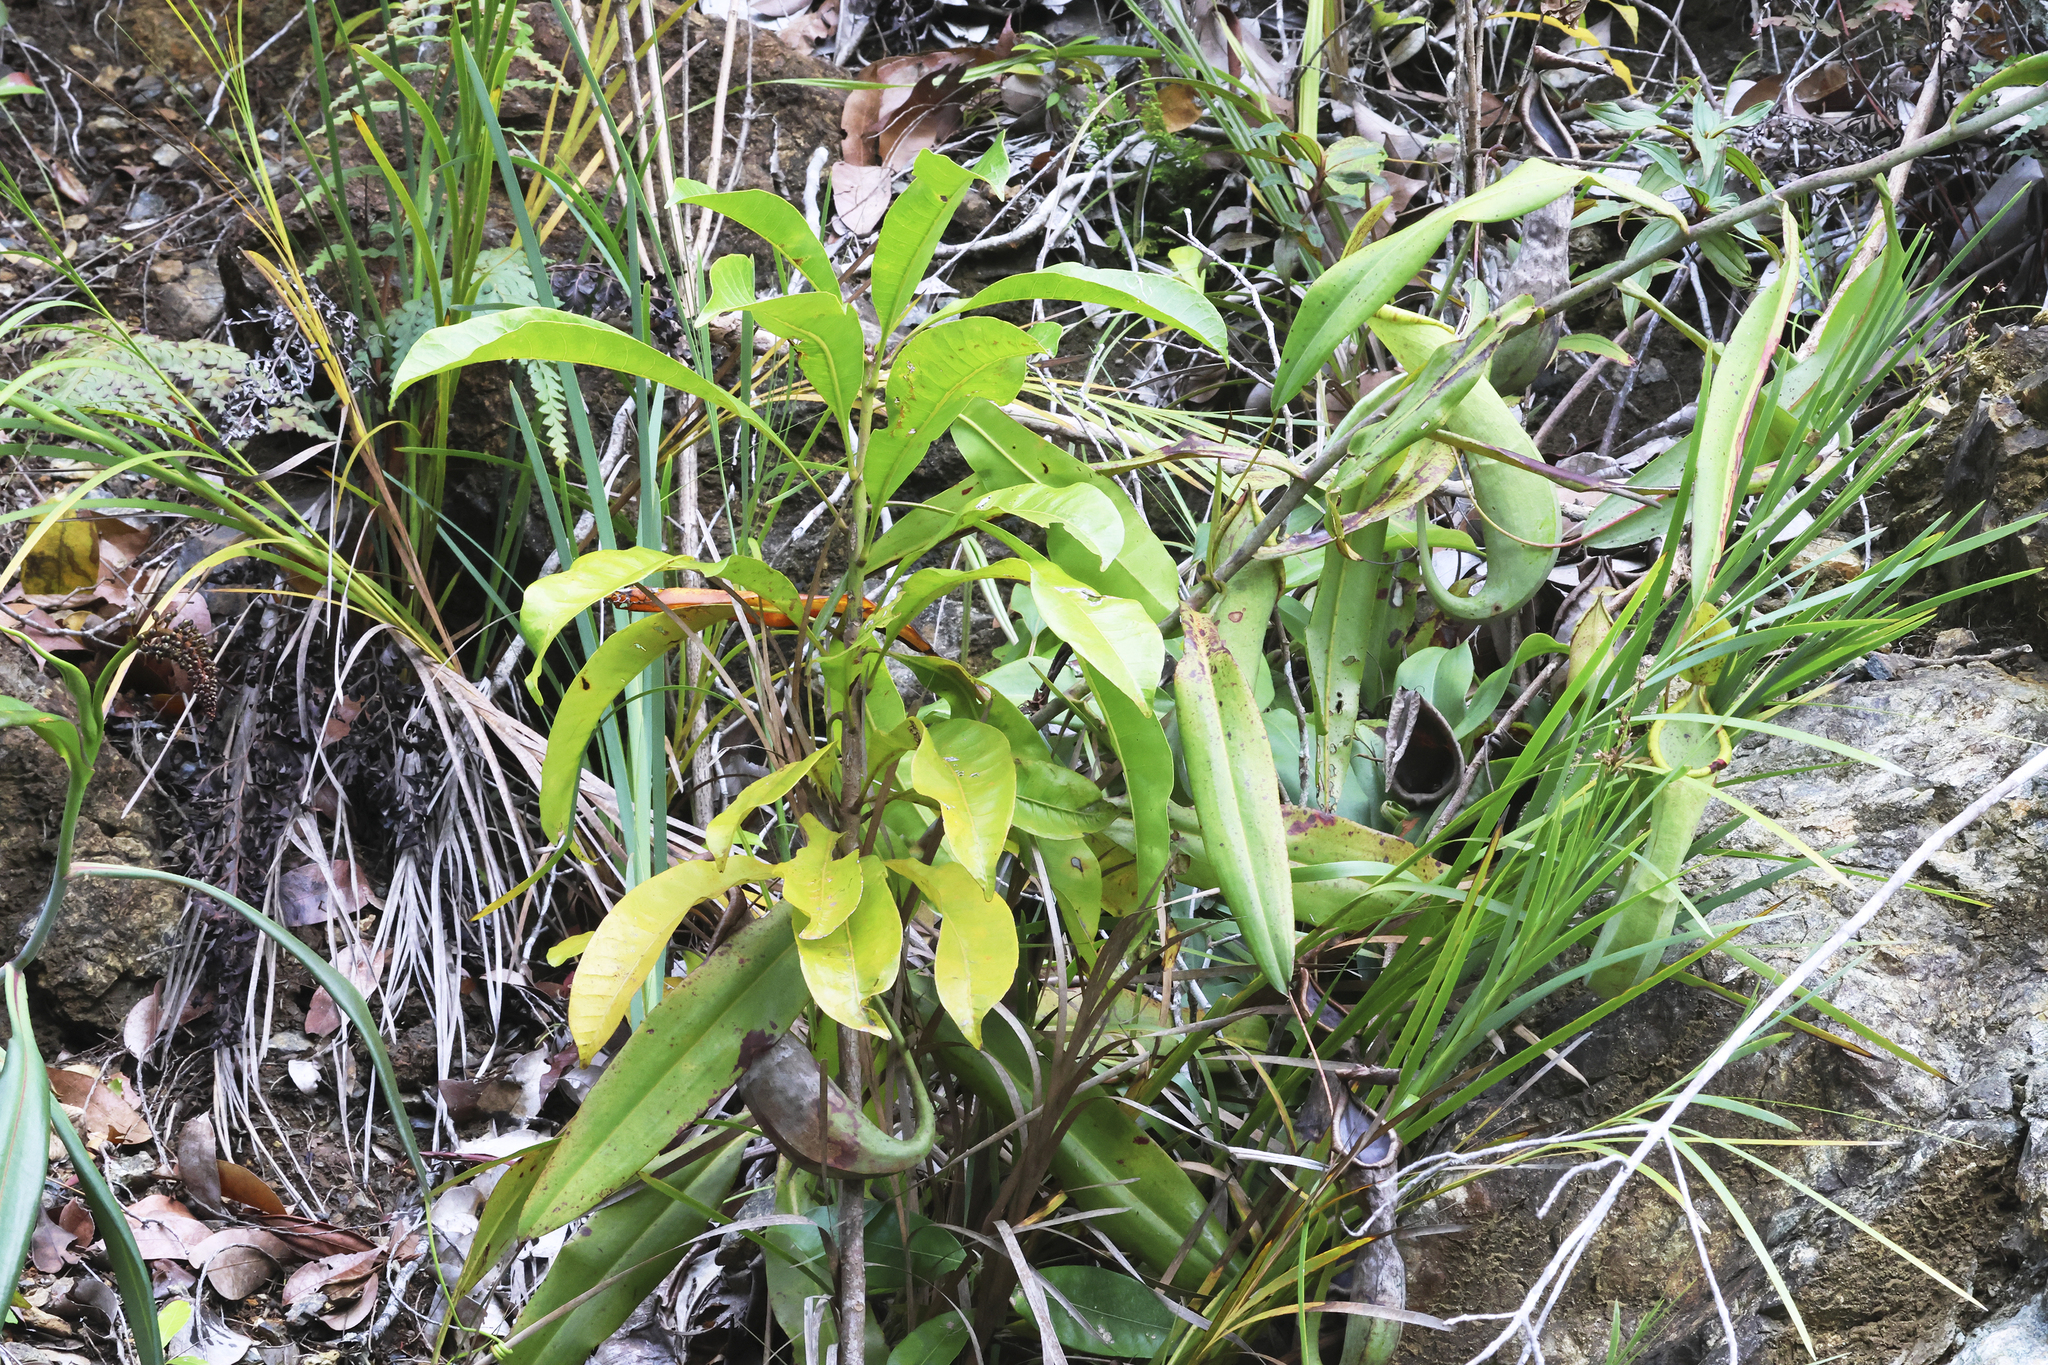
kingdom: Plantae
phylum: Tracheophyta
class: Magnoliopsida
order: Caryophyllales
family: Nepenthaceae
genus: Nepenthes
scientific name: Nepenthes macrovulgaris
